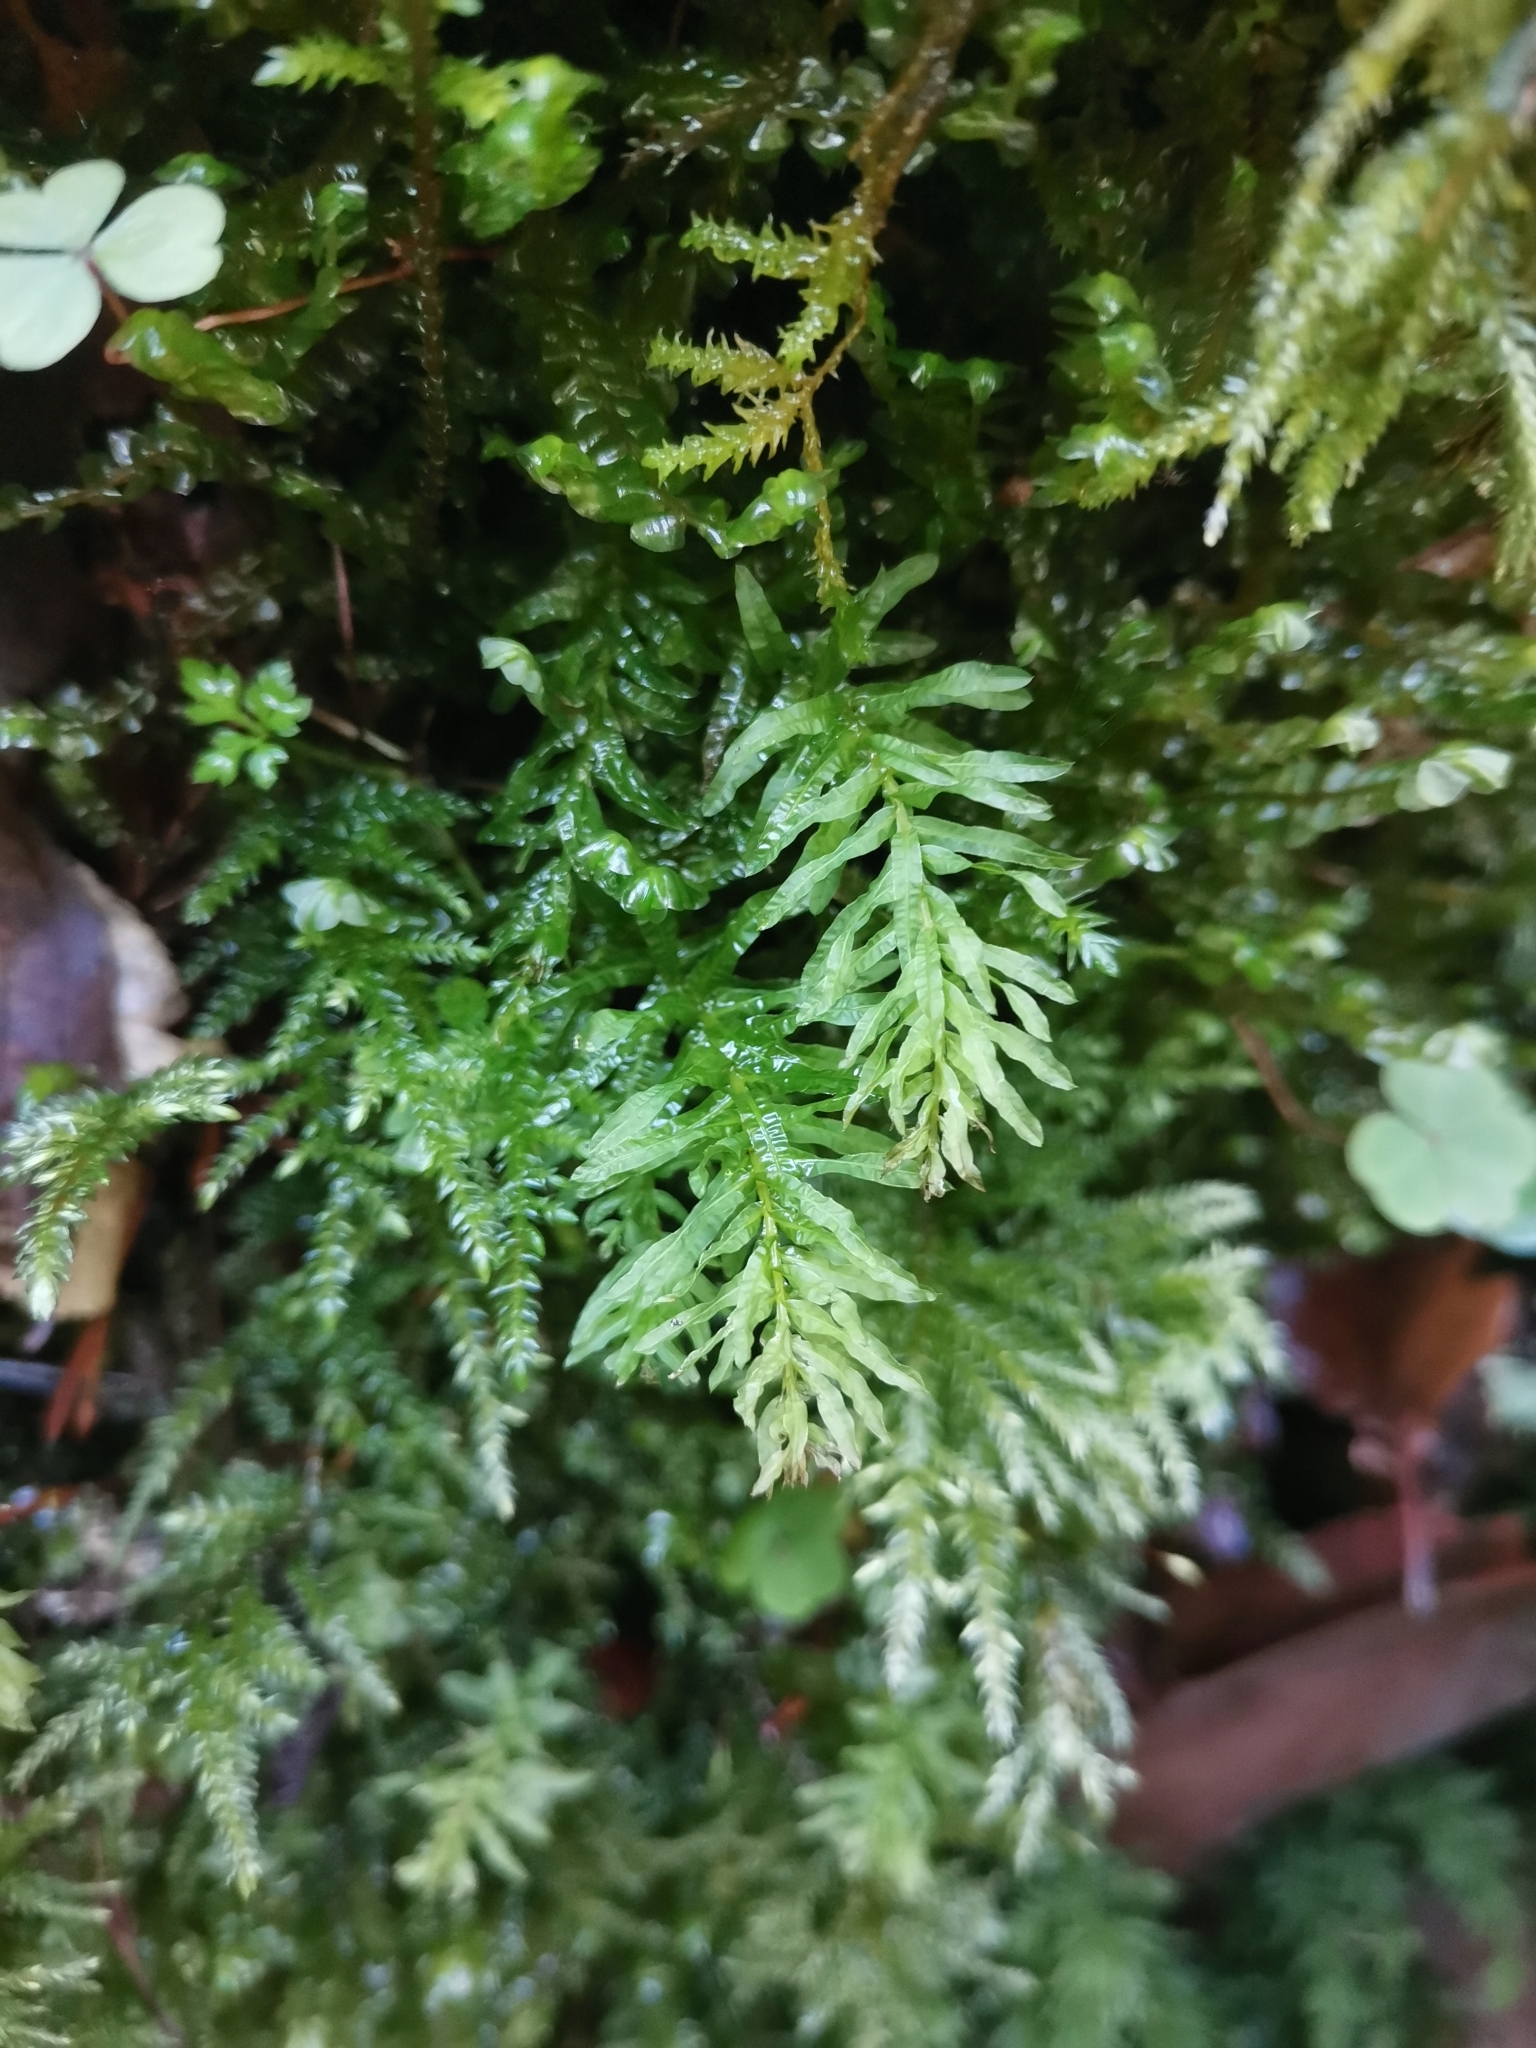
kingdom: Plantae
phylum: Bryophyta
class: Bryopsida
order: Bryales
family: Mniaceae
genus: Plagiomnium
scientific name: Plagiomnium undulatum
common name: Hart's-tongue thyme-moss
